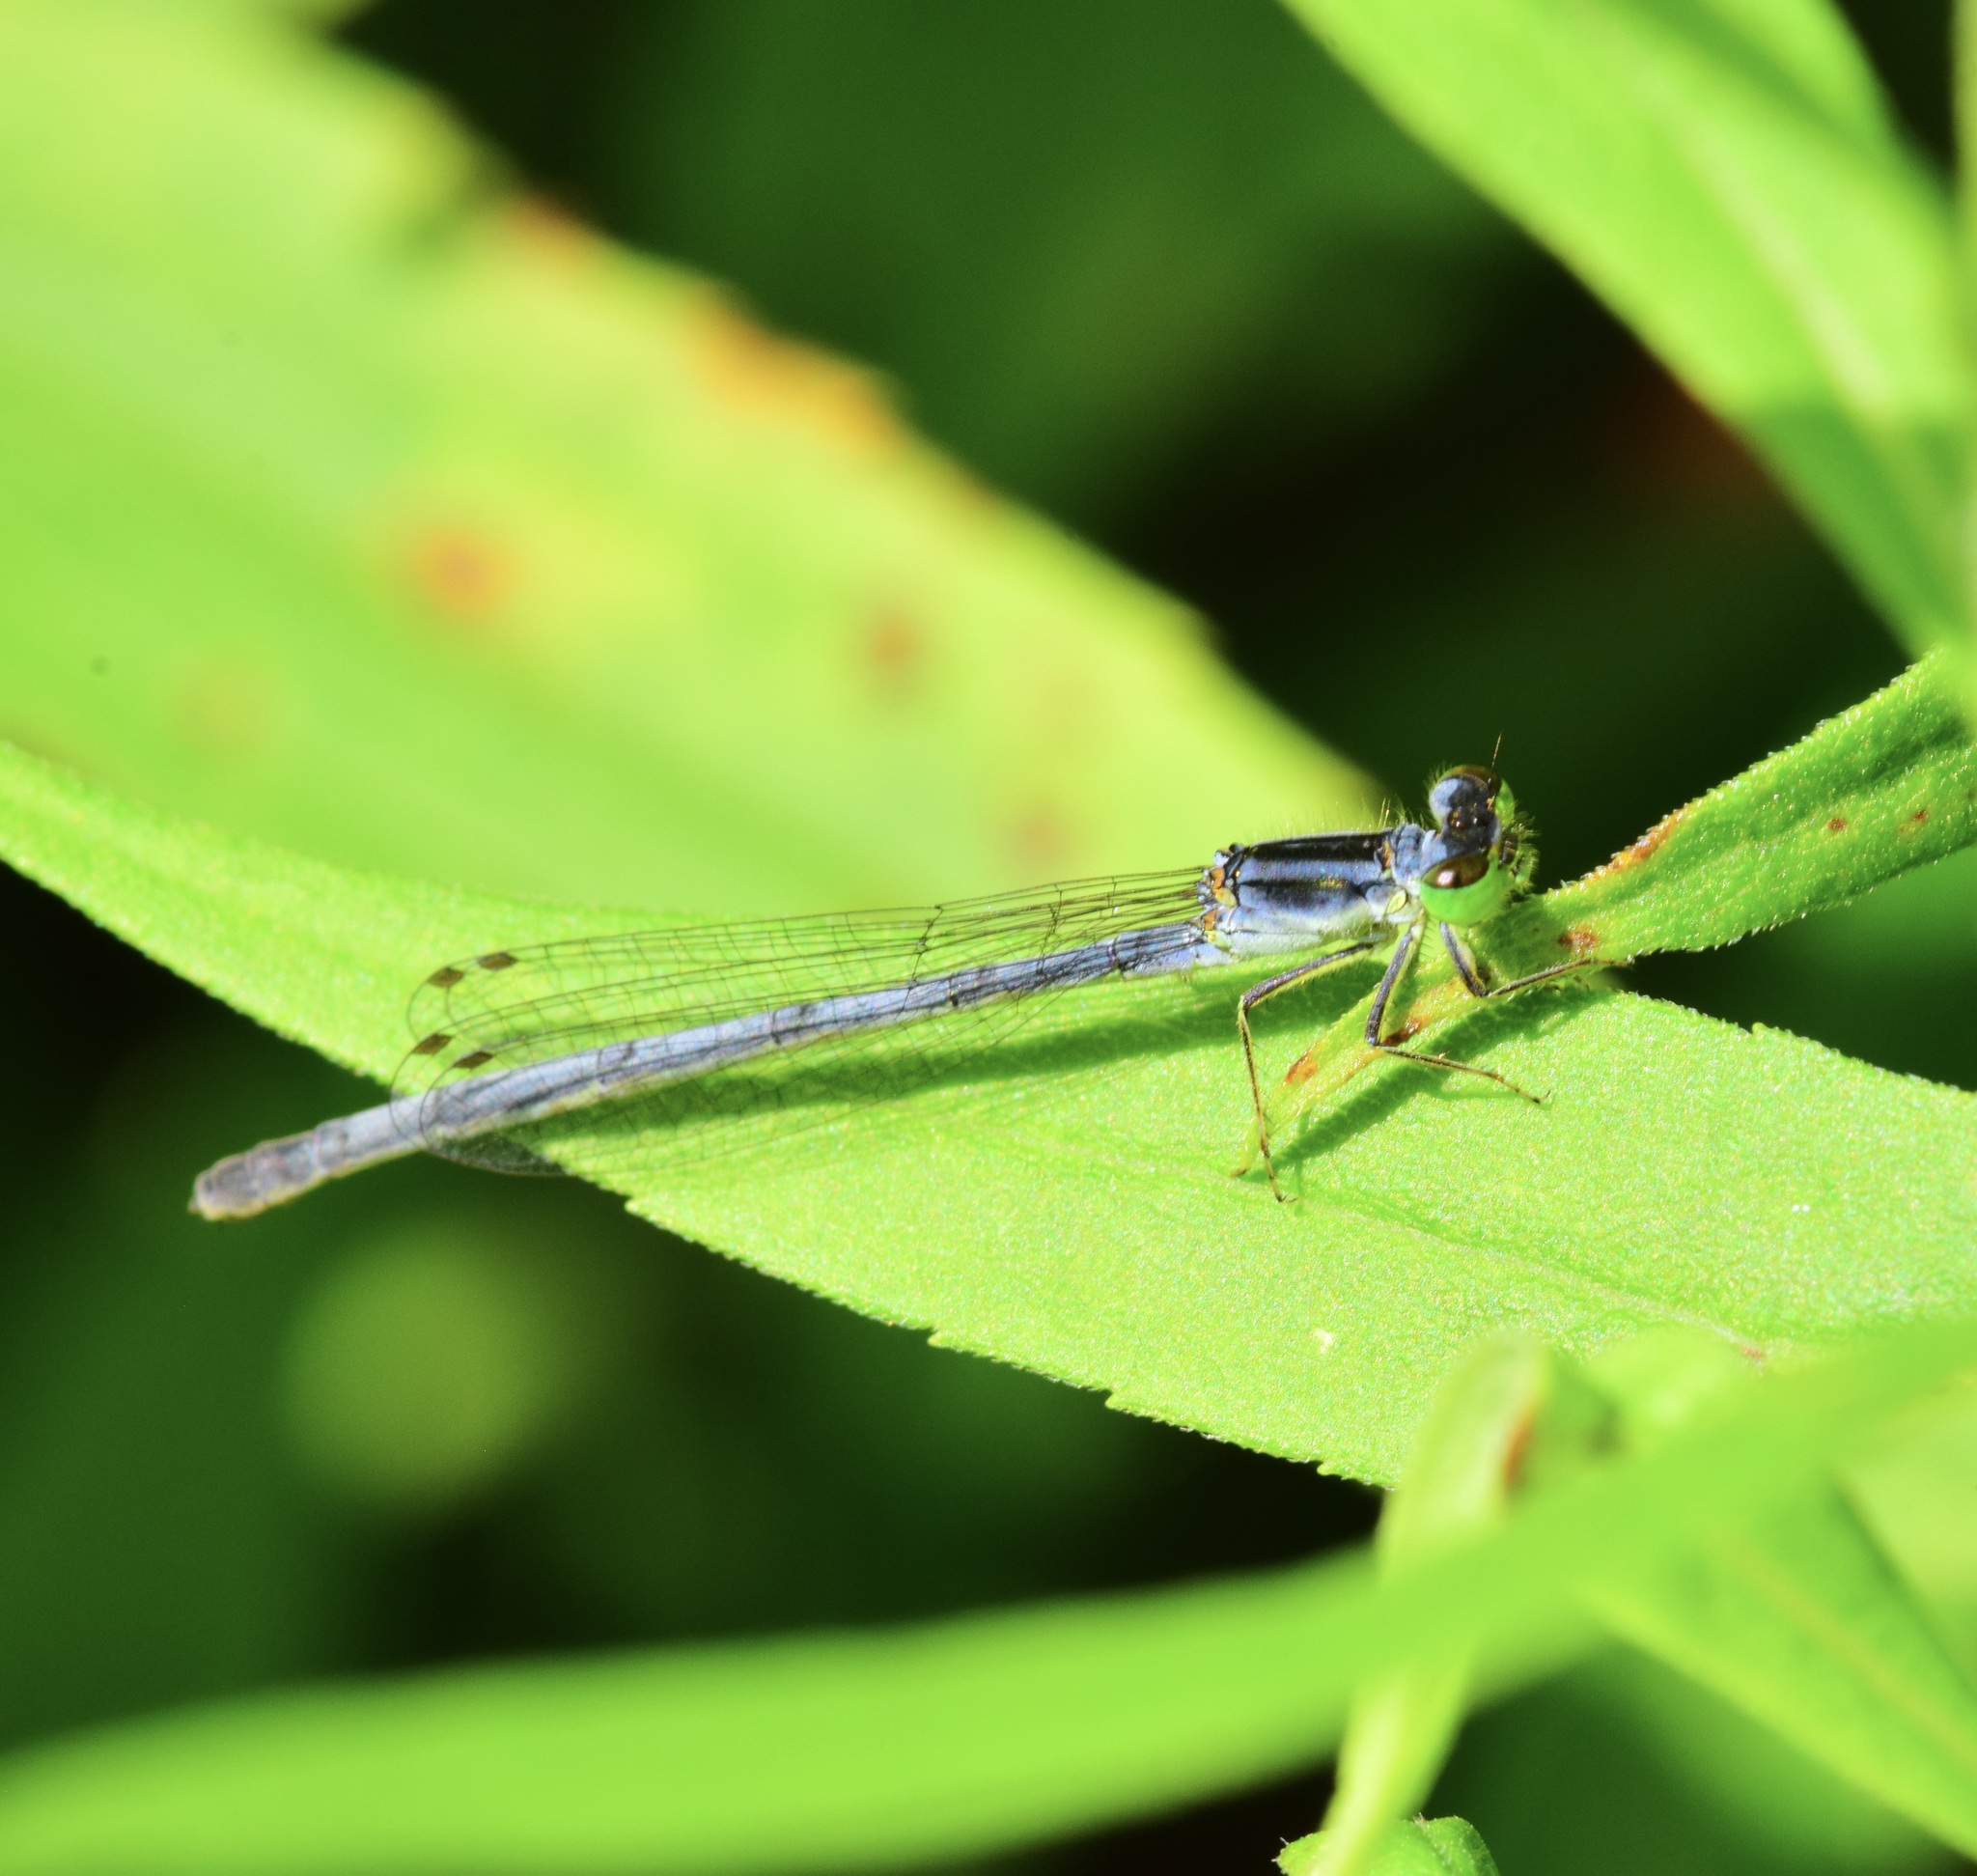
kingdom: Animalia
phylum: Arthropoda
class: Insecta
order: Odonata
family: Coenagrionidae
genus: Ischnura
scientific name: Ischnura verticalis
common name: Eastern forktail
